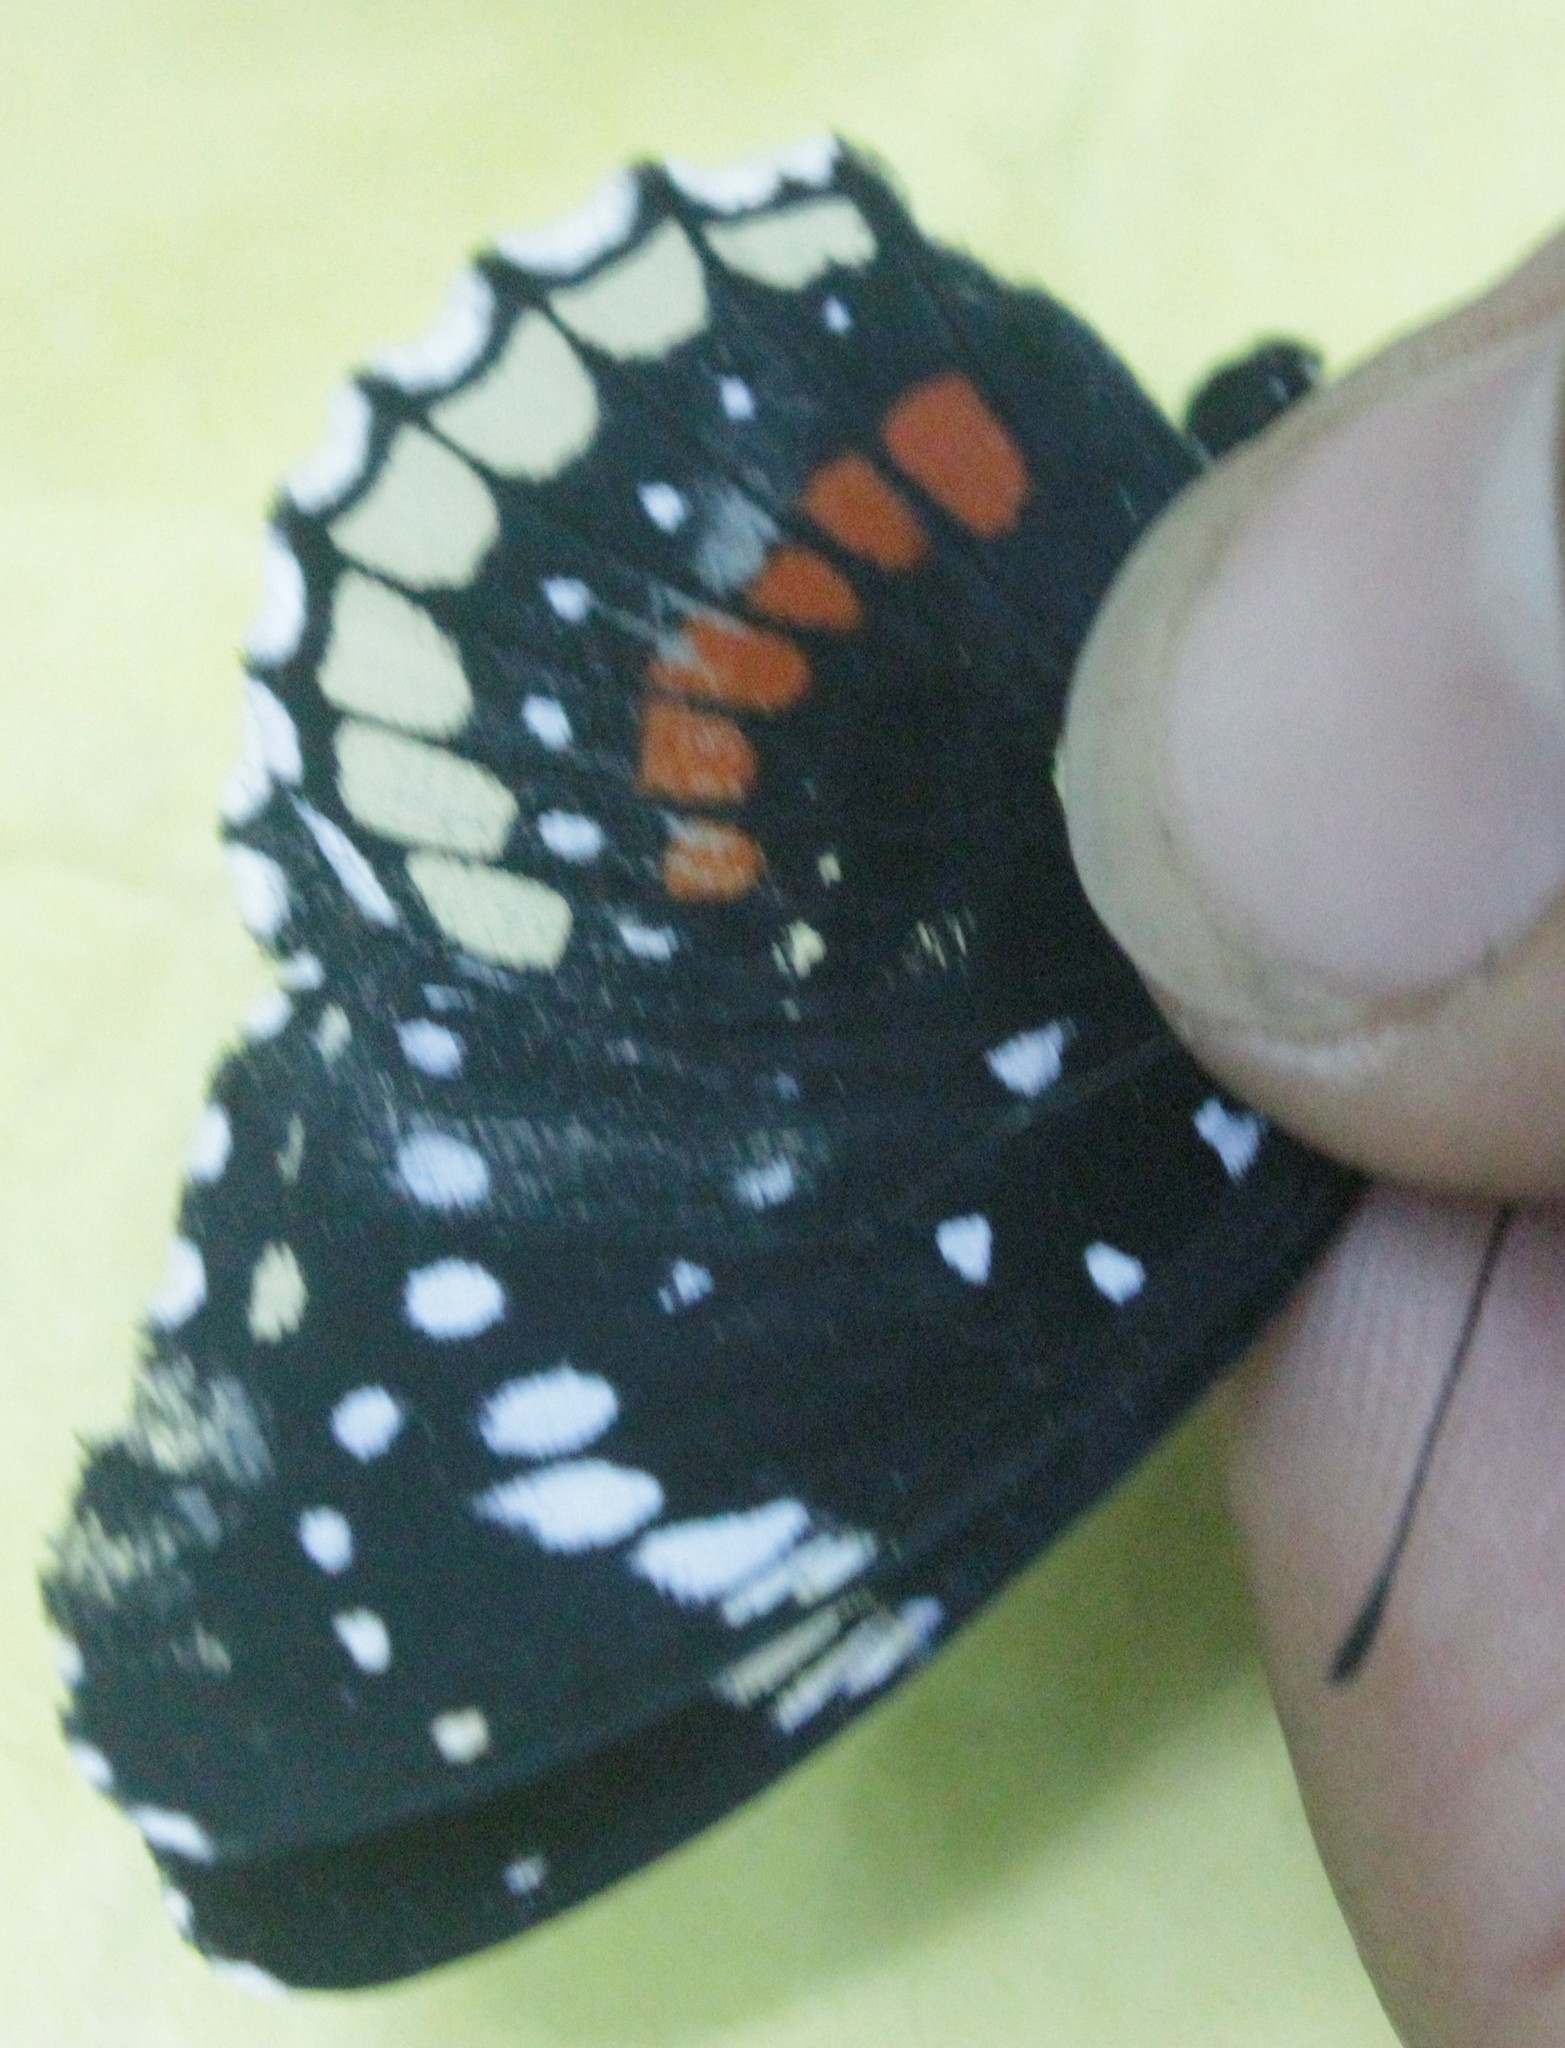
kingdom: Animalia
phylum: Arthropoda
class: Insecta
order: Lepidoptera
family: Nymphalidae
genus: Chlosyne
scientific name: Chlosyne hippodrome
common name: Simple patch
